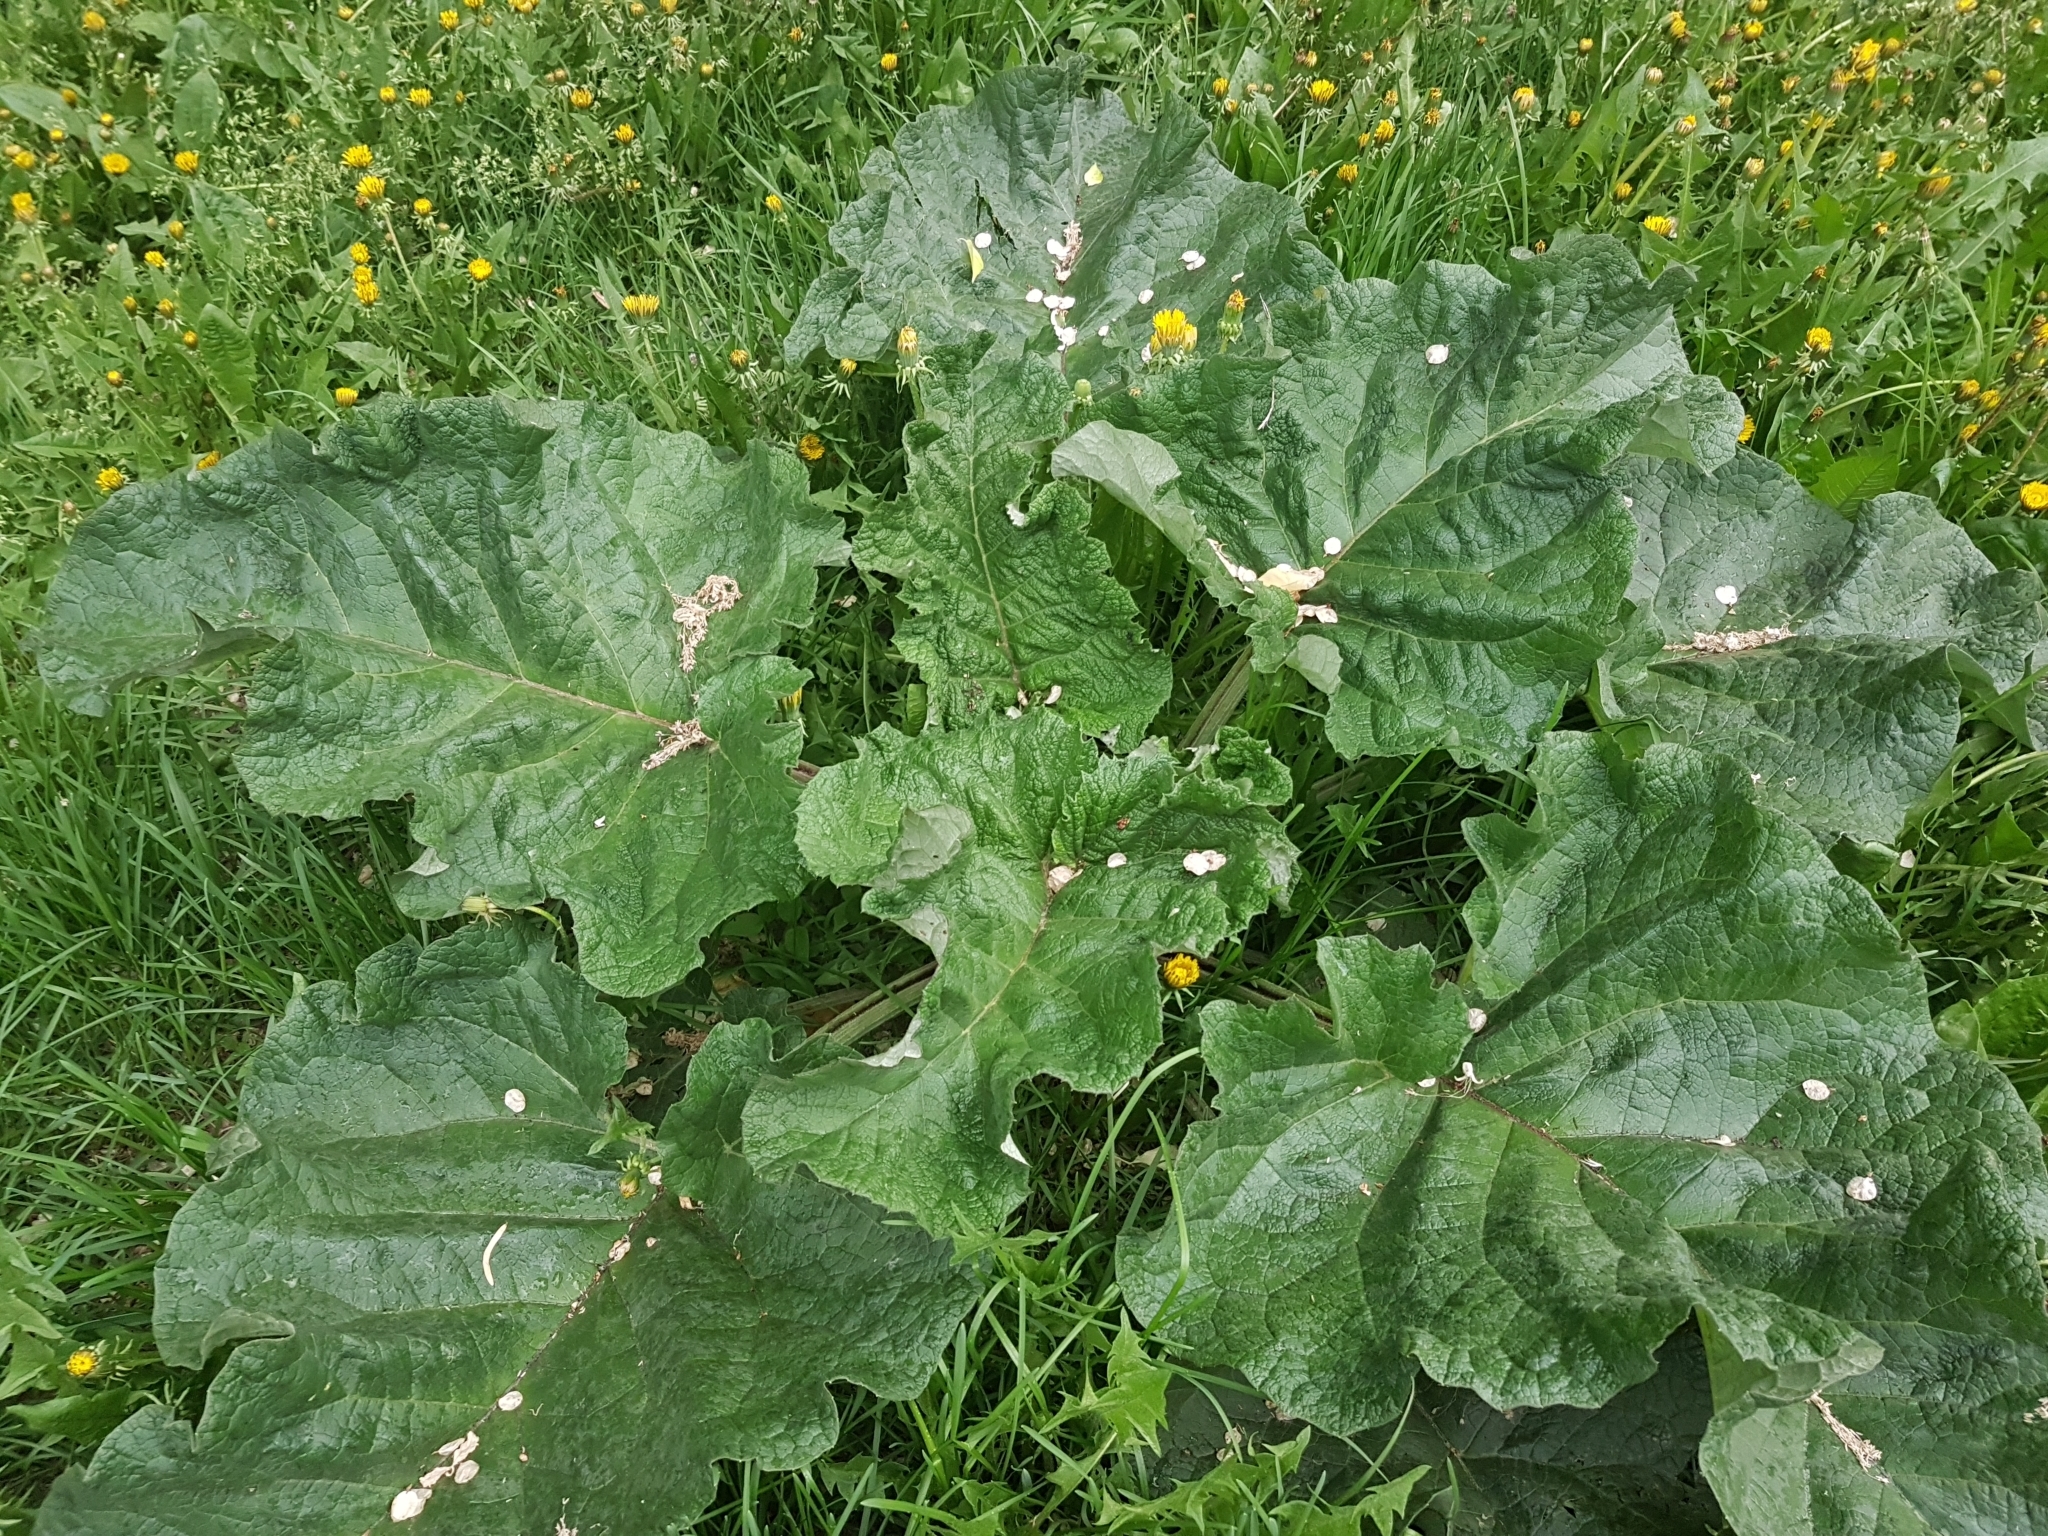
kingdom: Plantae
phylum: Tracheophyta
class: Magnoliopsida
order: Asterales
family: Asteraceae
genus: Arctium
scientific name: Arctium tomentosum
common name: Woolly burdock
